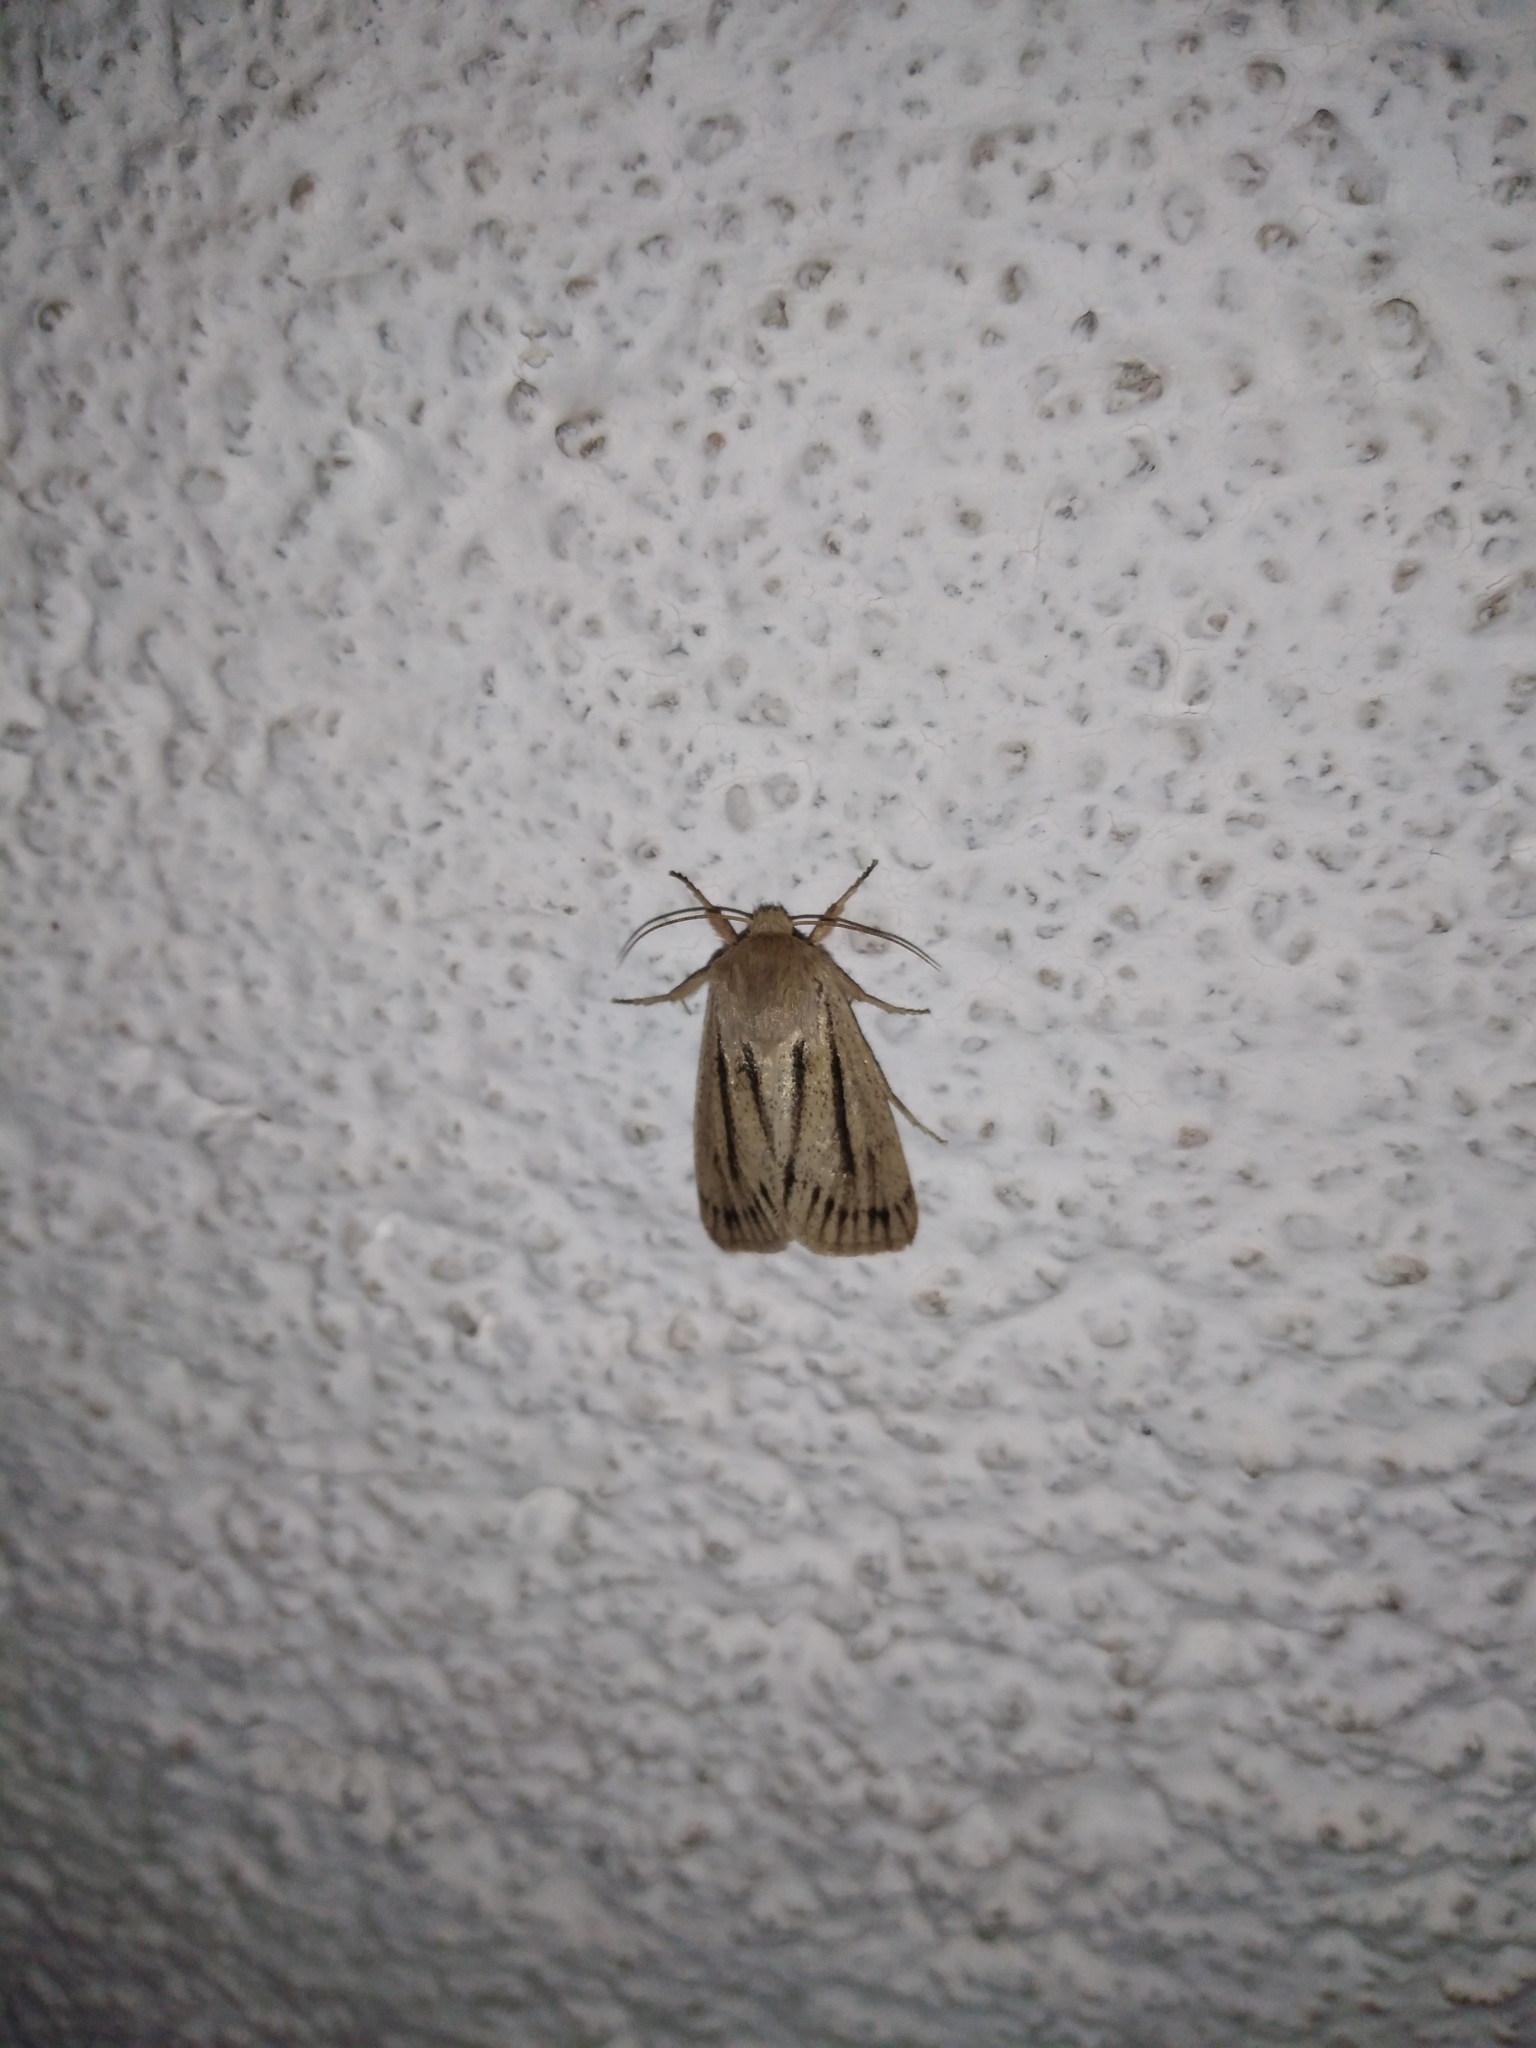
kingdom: Animalia
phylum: Arthropoda
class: Insecta
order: Lepidoptera
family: Noctuidae
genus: Tripseuxoa
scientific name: Tripseuxoa strigata
